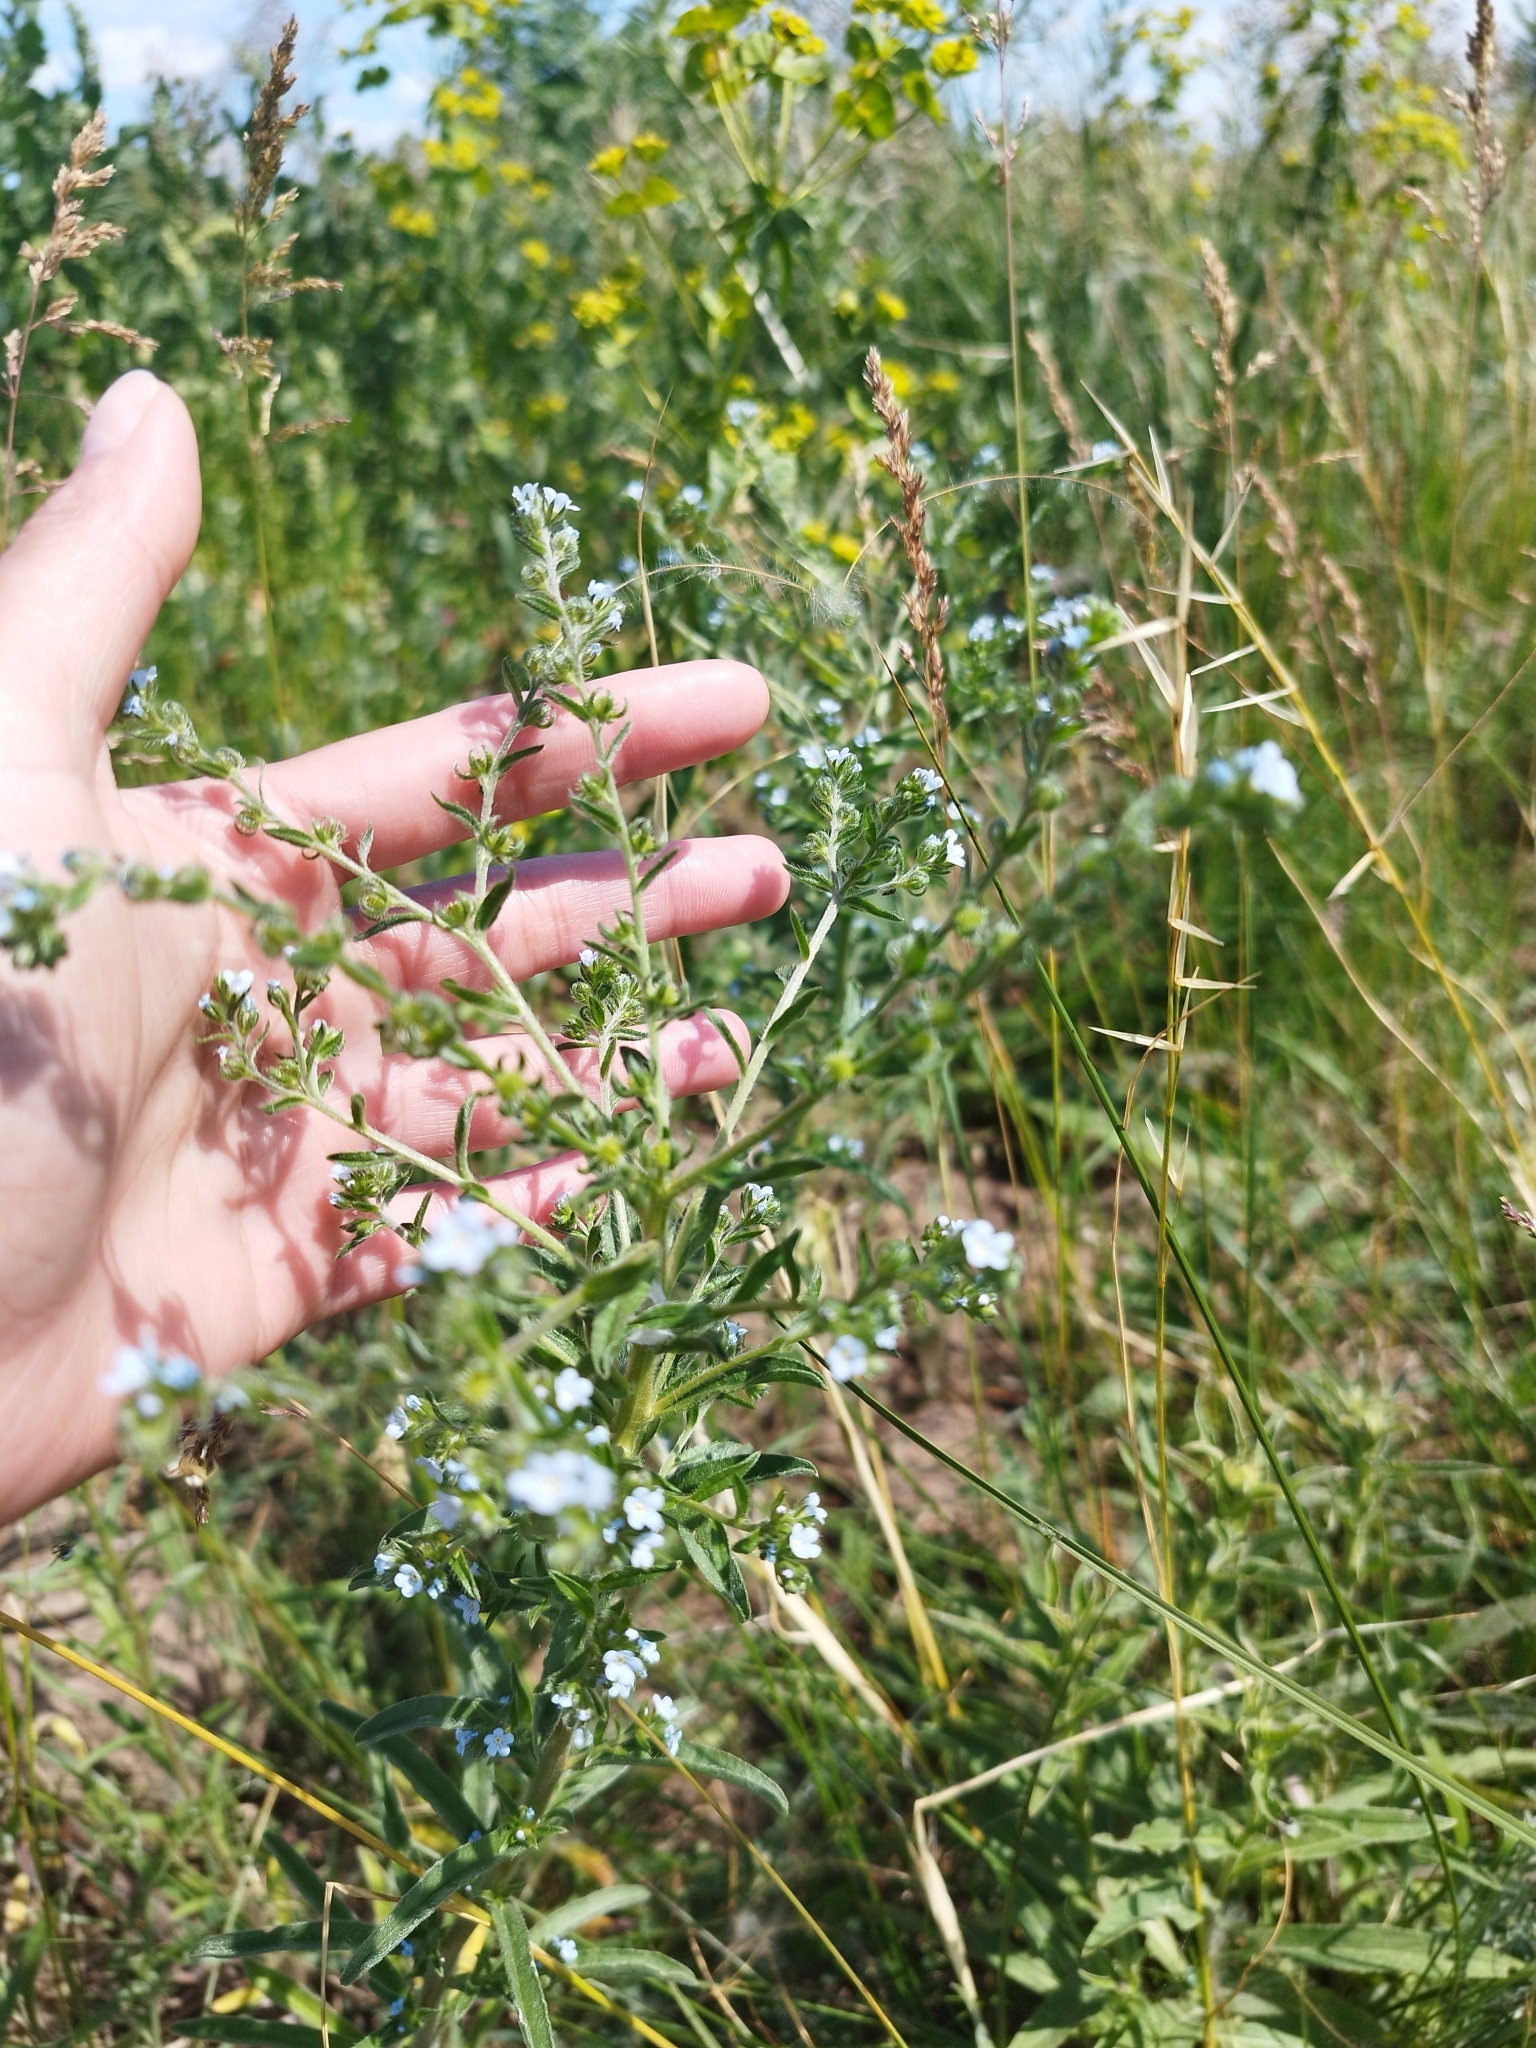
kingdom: Plantae
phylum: Tracheophyta
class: Magnoliopsida
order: Boraginales
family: Boraginaceae
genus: Lappula
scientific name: Lappula squarrosa
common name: European stickseed
